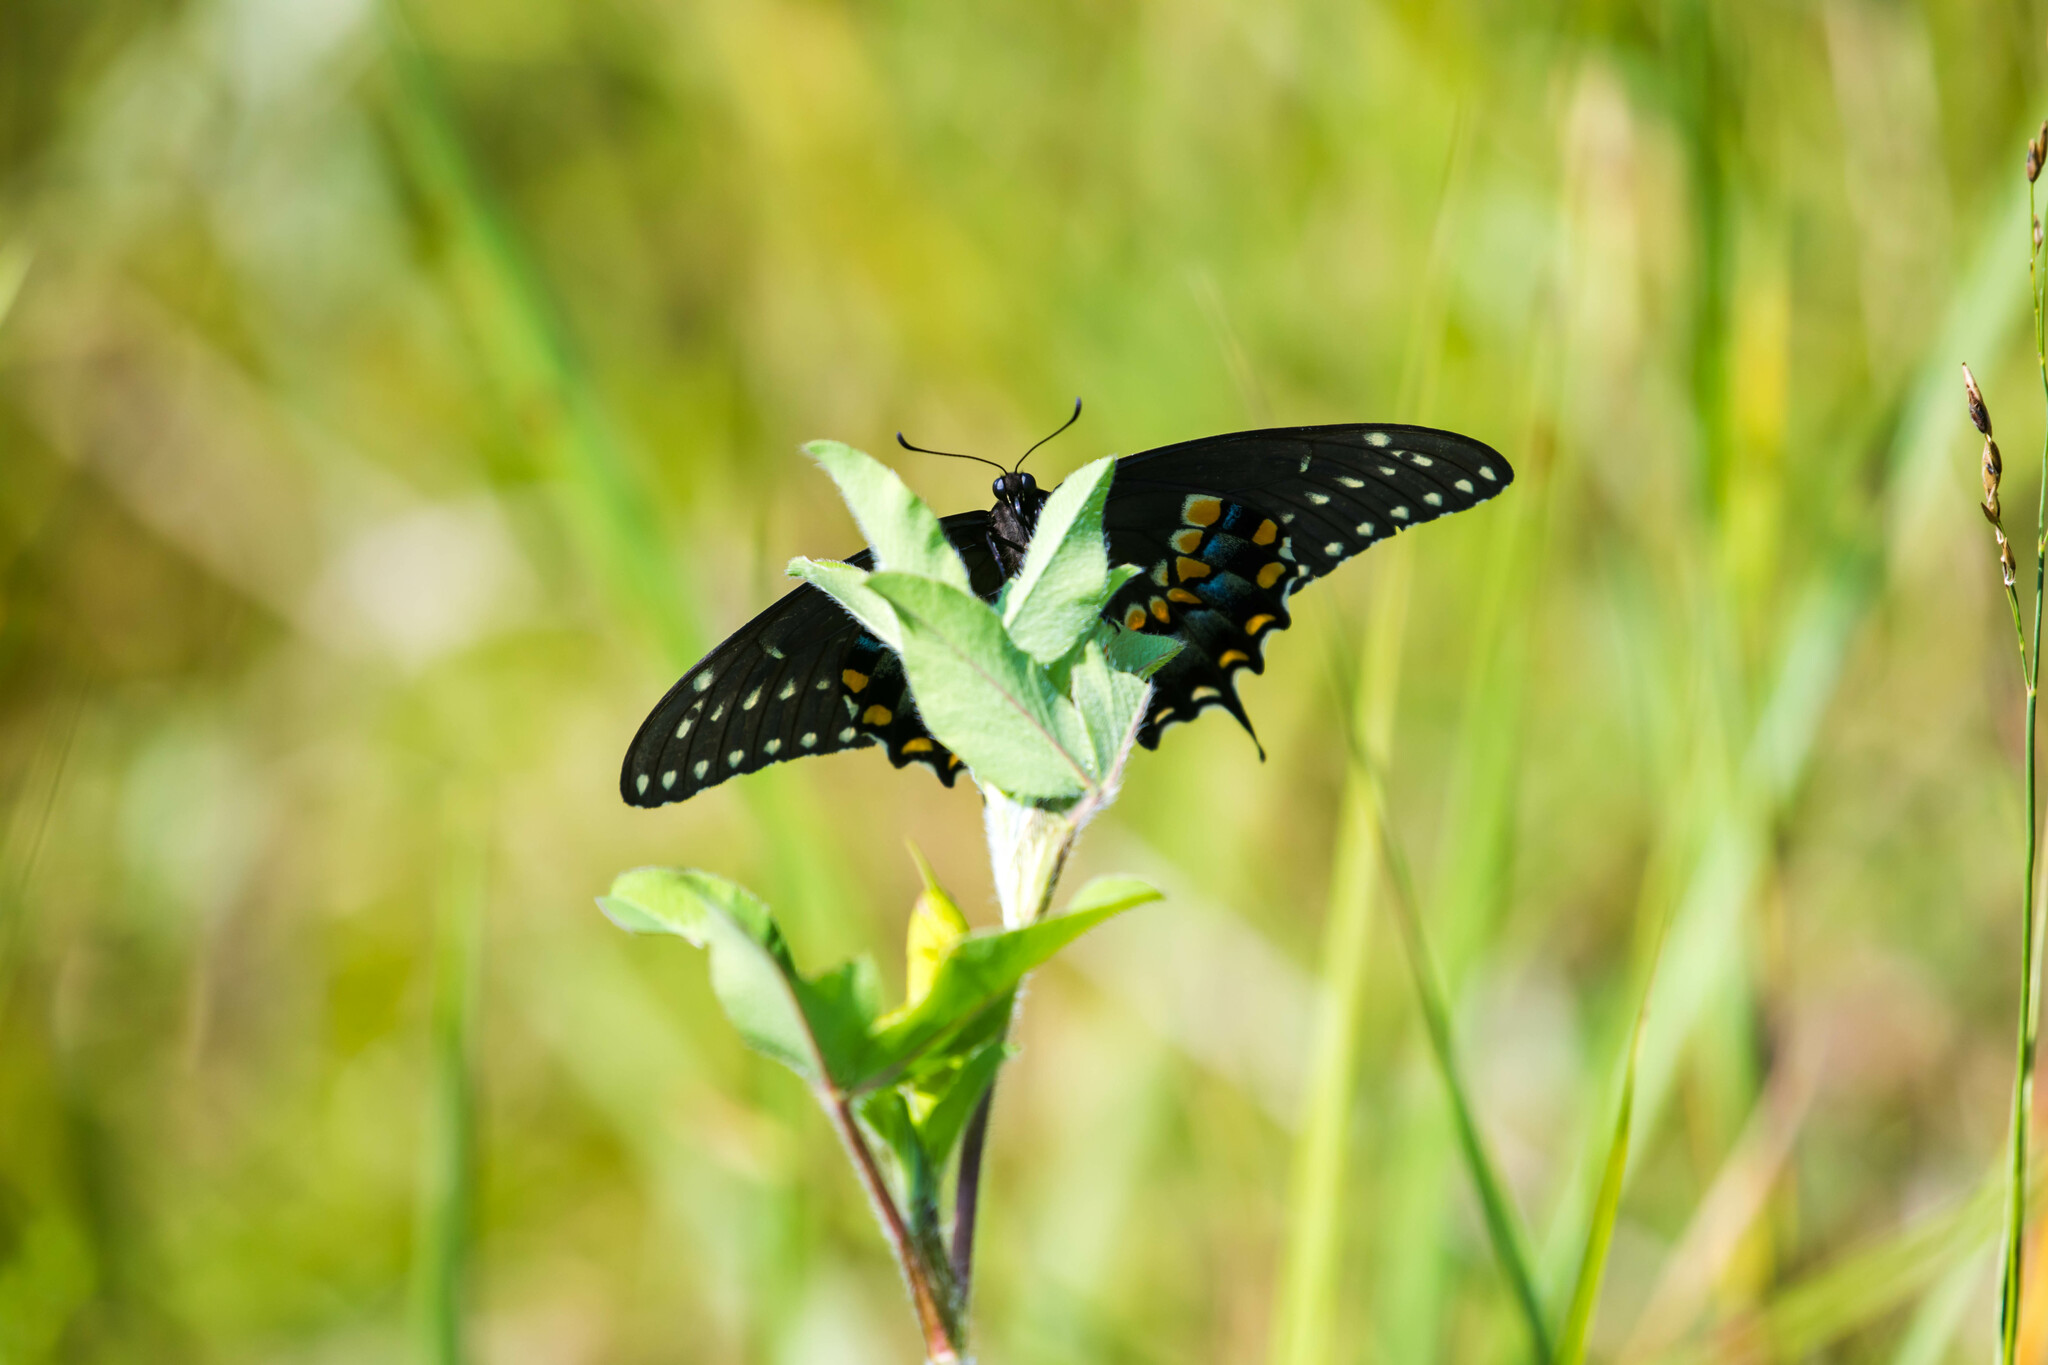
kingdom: Animalia
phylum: Arthropoda
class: Insecta
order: Lepidoptera
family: Papilionidae
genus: Papilio
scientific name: Papilio polyxenes
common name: Black swallowtail
